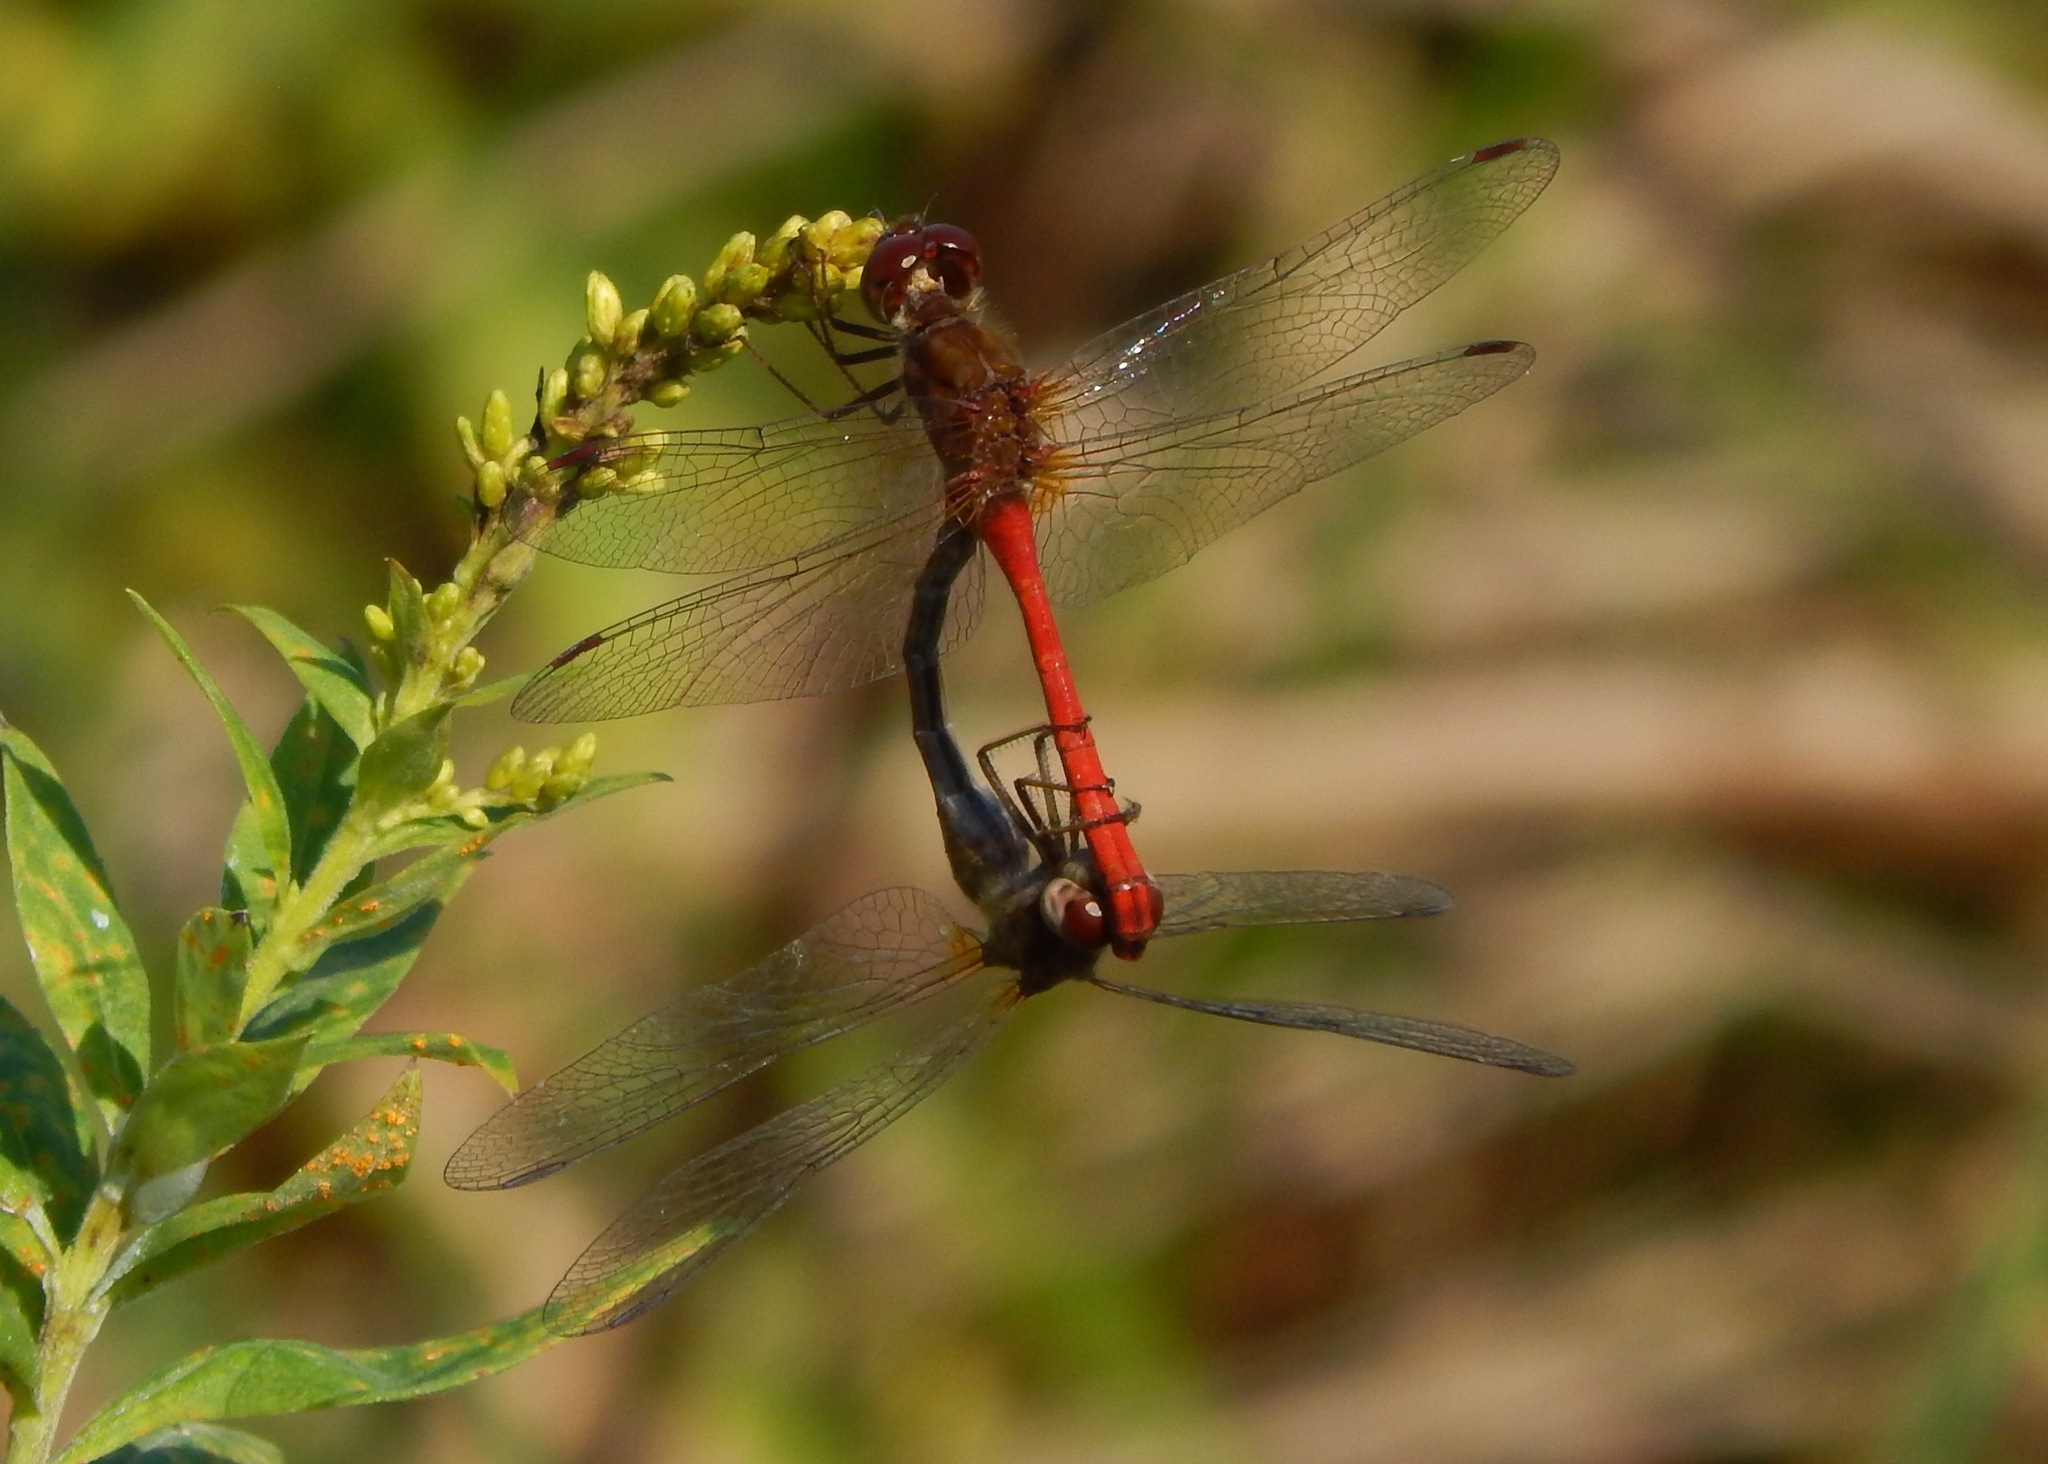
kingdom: Animalia
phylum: Arthropoda
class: Insecta
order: Odonata
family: Libellulidae
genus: Sympetrum
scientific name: Sympetrum vicinum
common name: Autumn meadowhawk
